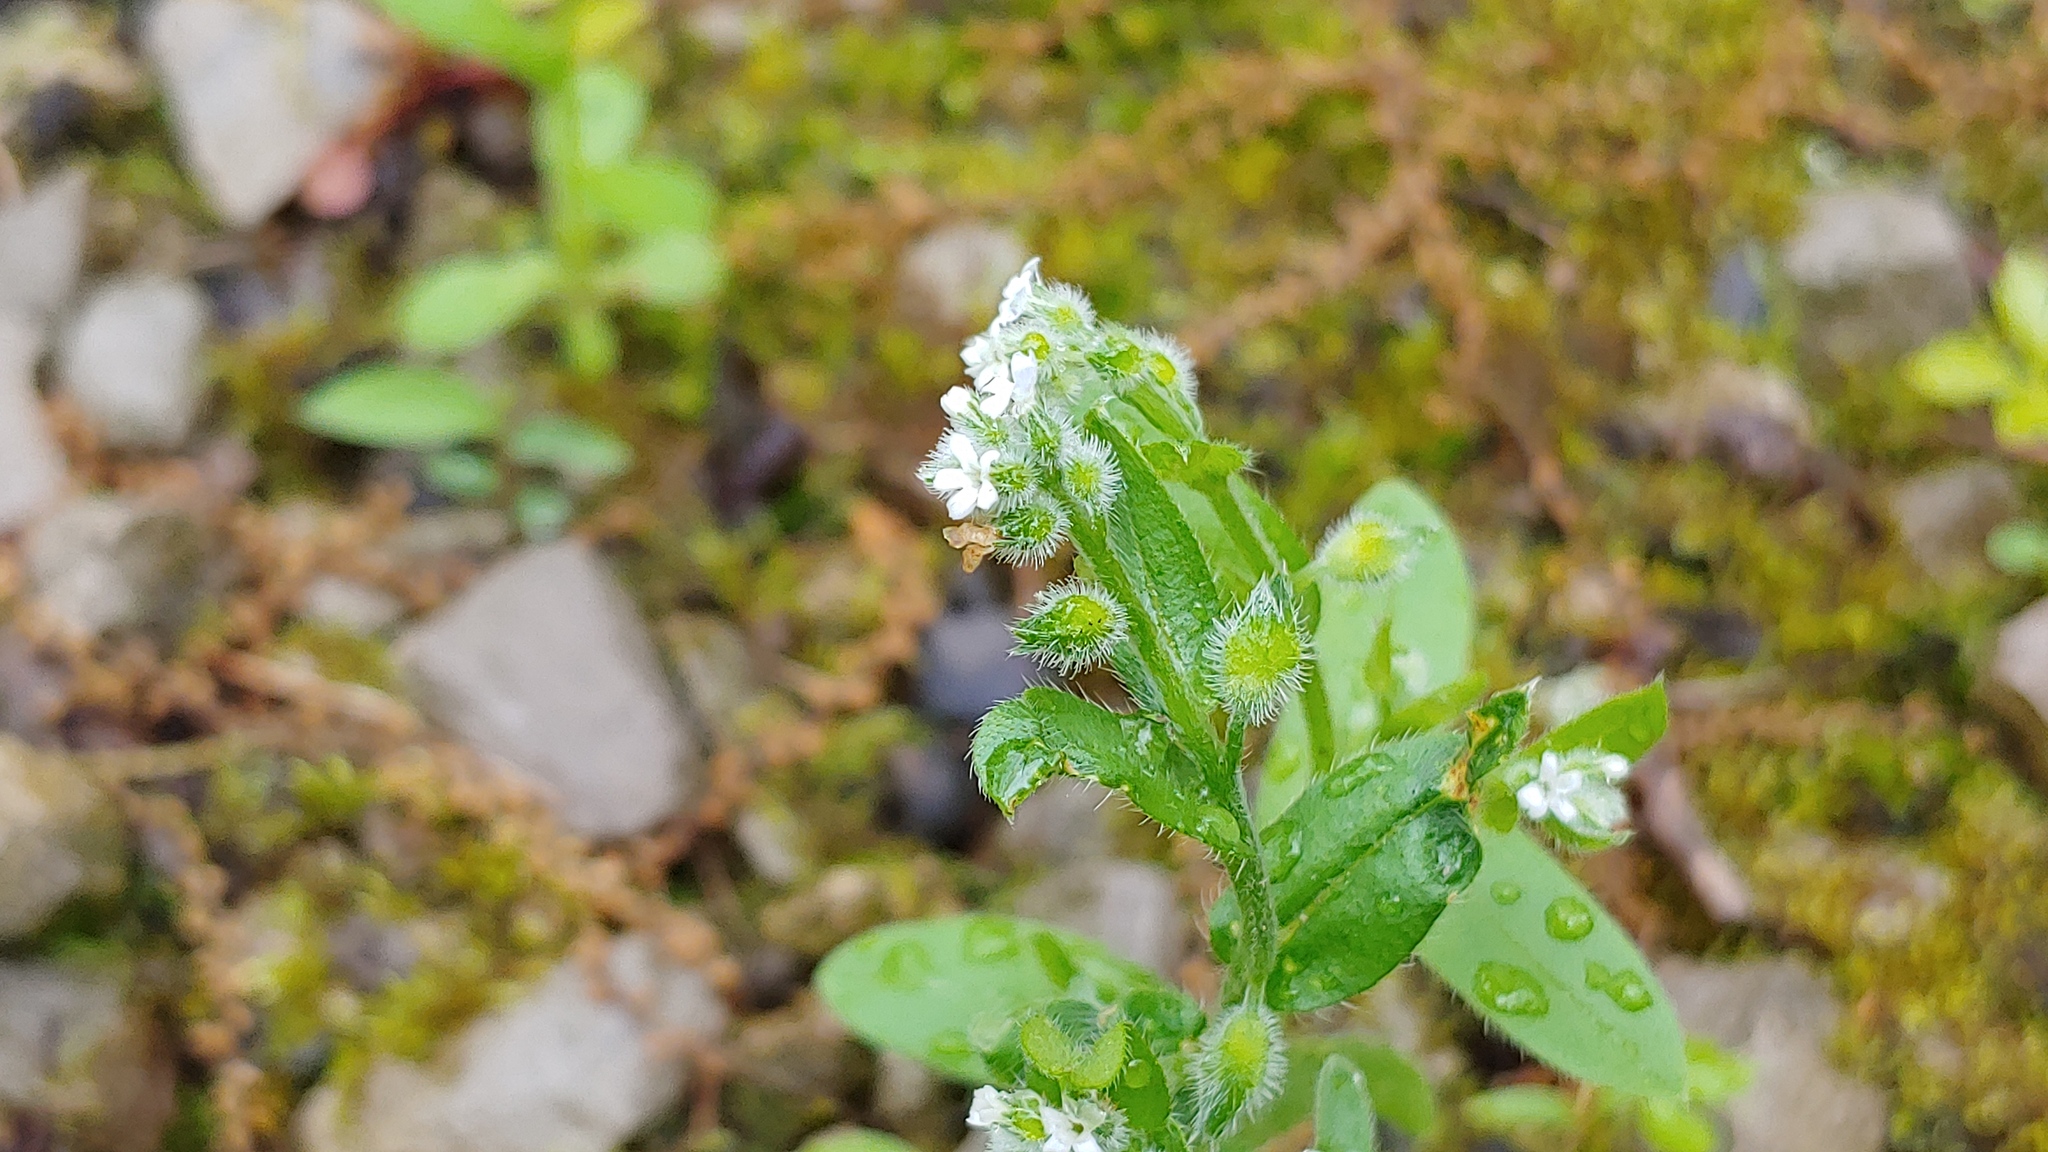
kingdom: Plantae
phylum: Tracheophyta
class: Magnoliopsida
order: Boraginales
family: Boraginaceae
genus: Myosotis
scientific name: Myosotis macrosperma
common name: Large-seed forget-me-not
